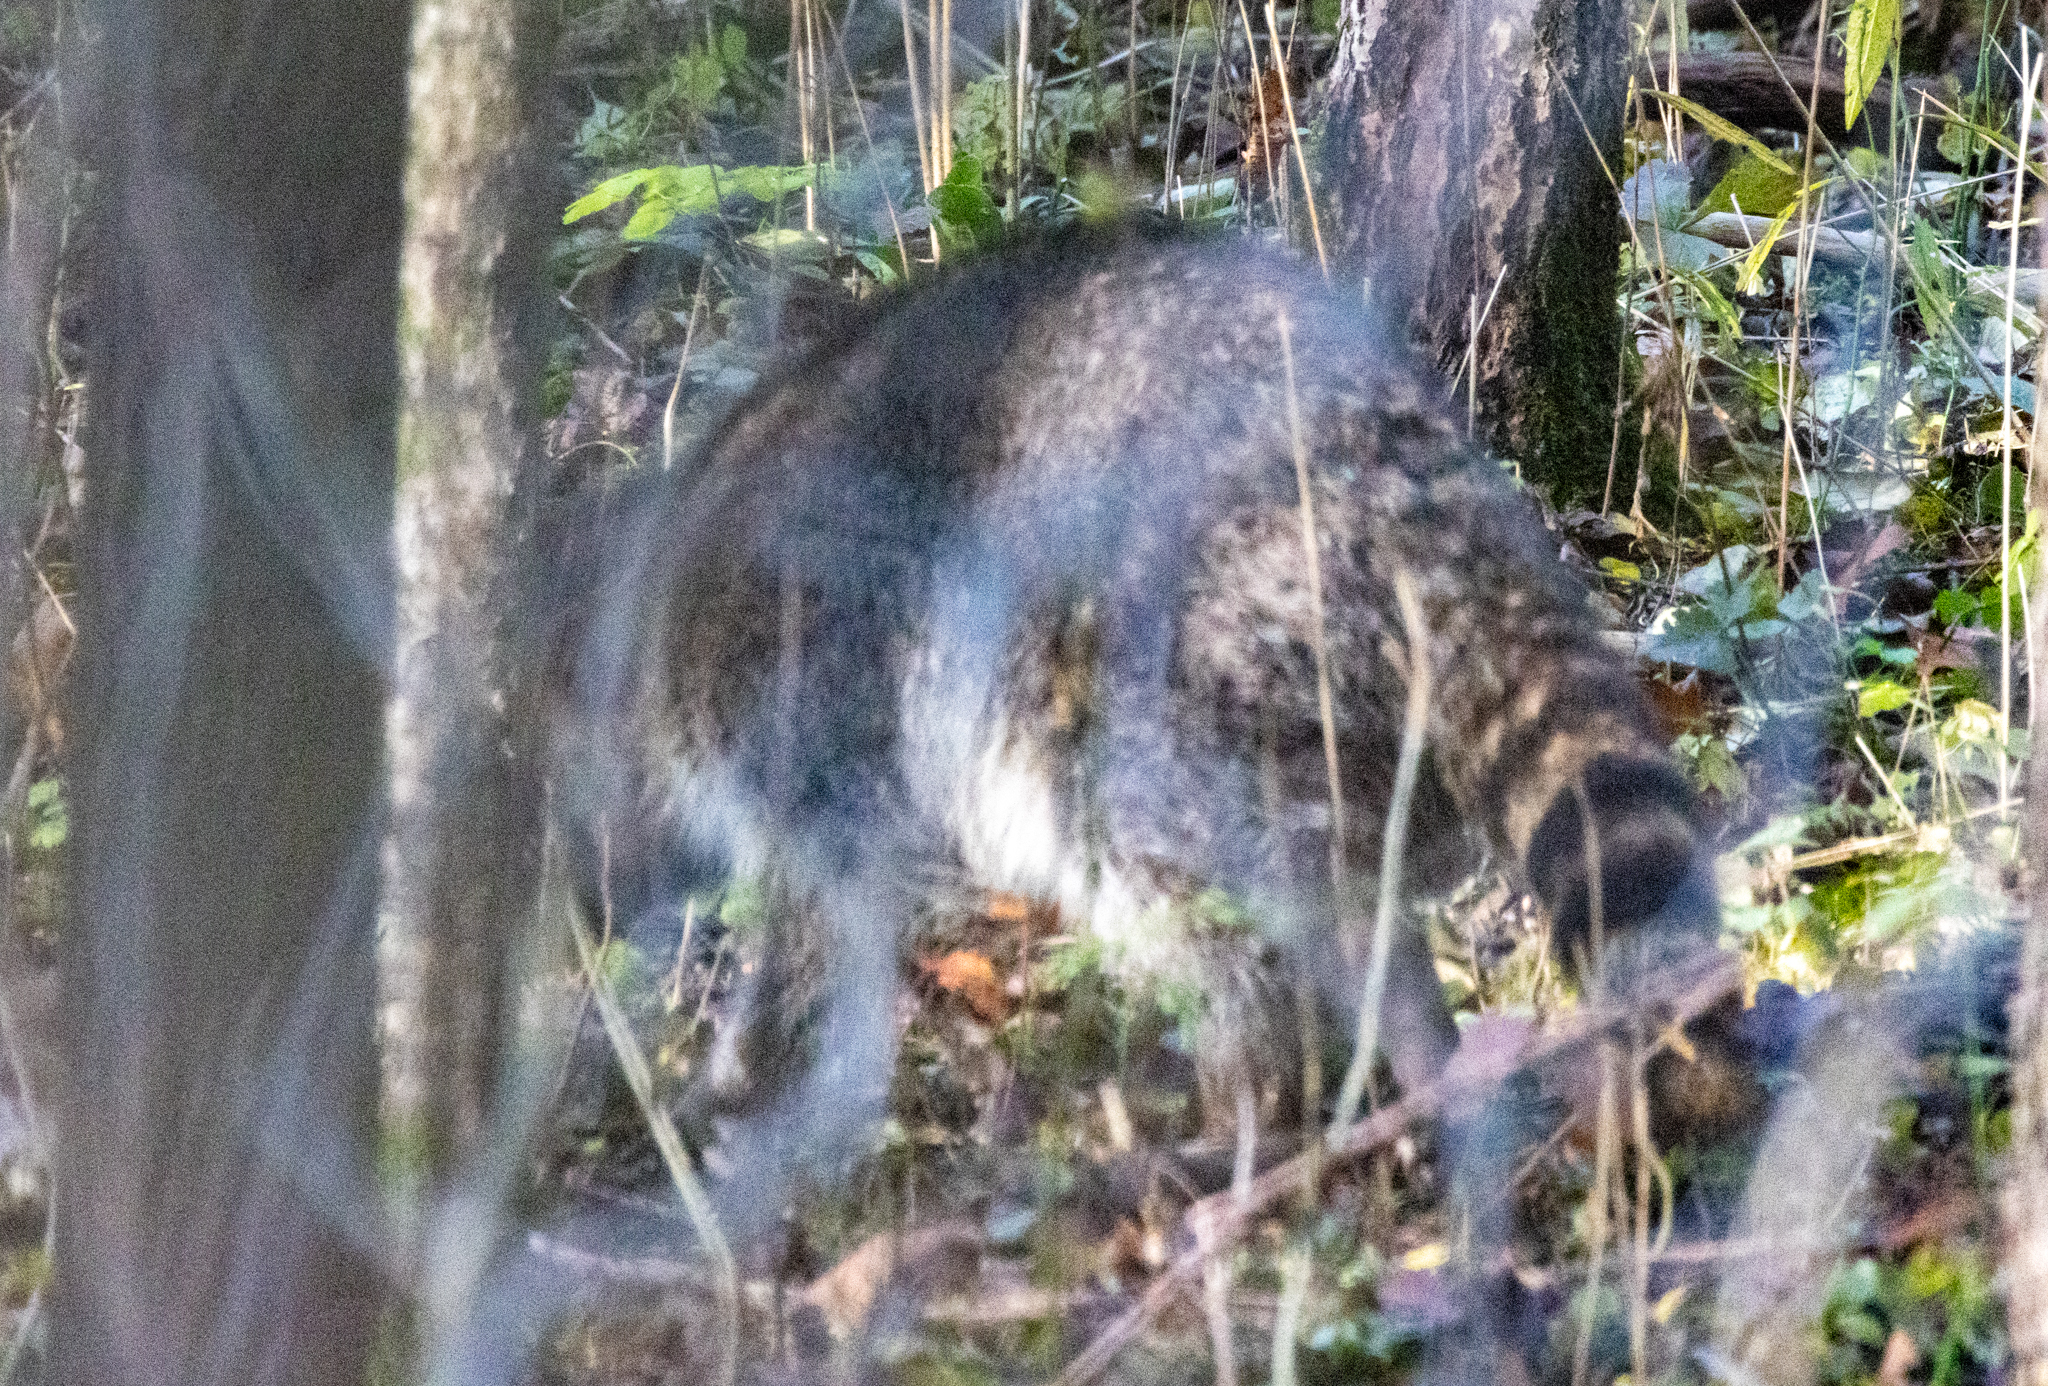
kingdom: Animalia
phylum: Chordata
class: Mammalia
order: Carnivora
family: Procyonidae
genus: Procyon
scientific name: Procyon lotor
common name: Raccoon
